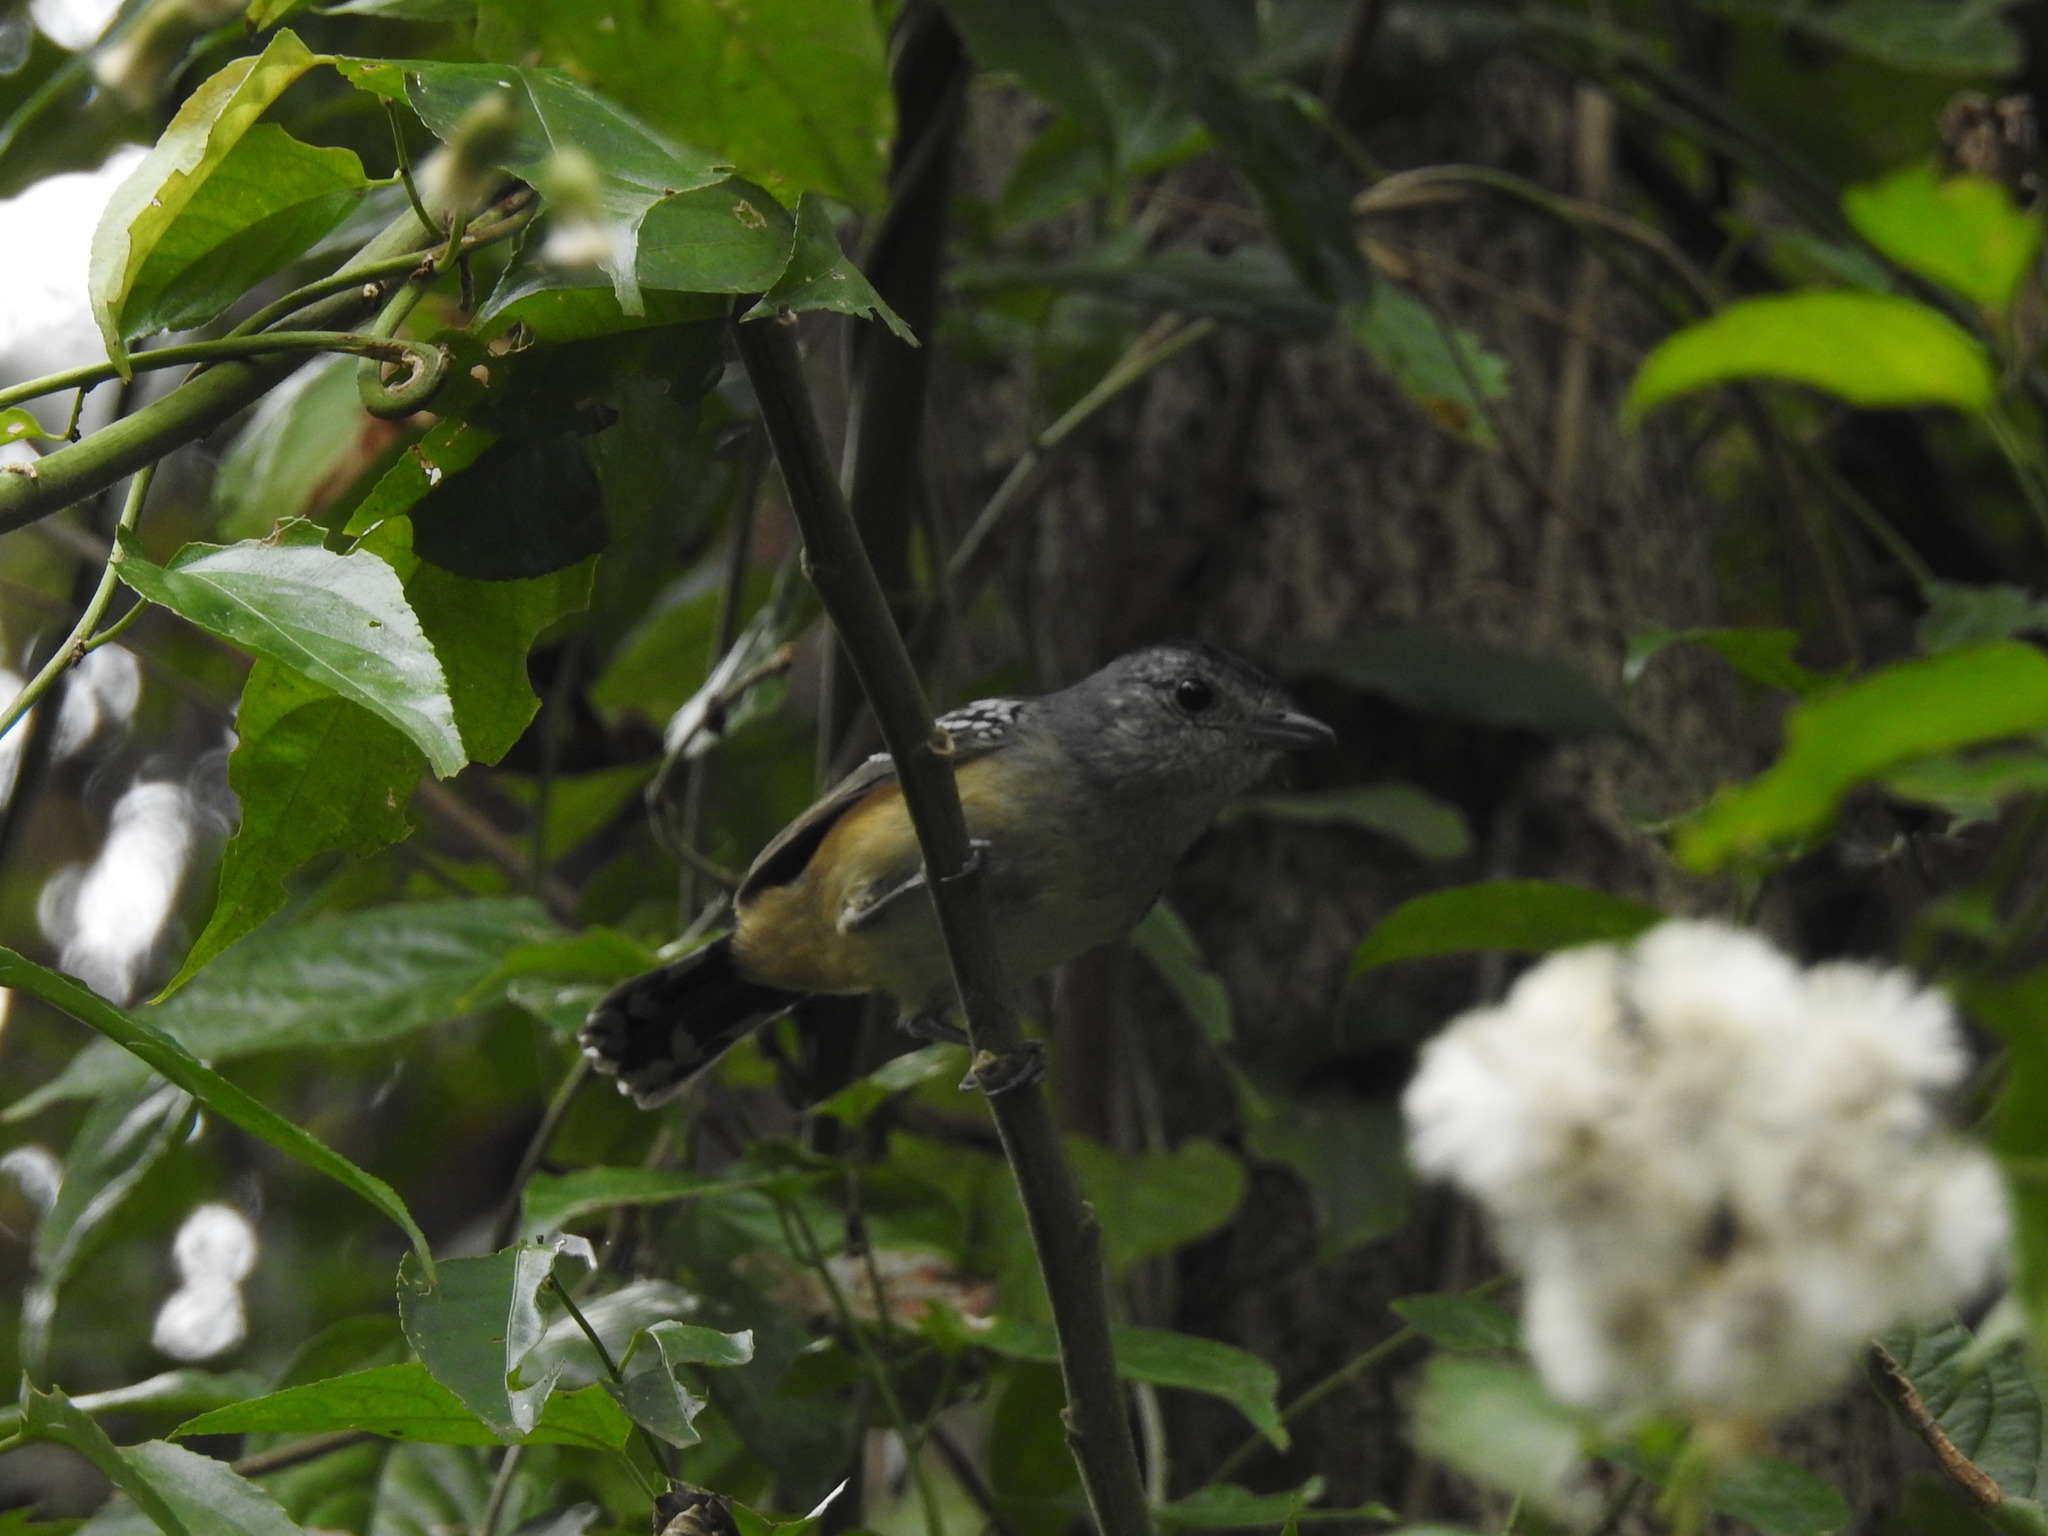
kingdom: Animalia
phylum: Chordata
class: Aves
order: Passeriformes
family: Thamnophilidae
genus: Thamnophilus
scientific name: Thamnophilus caerulescens
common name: Variable antshrike
